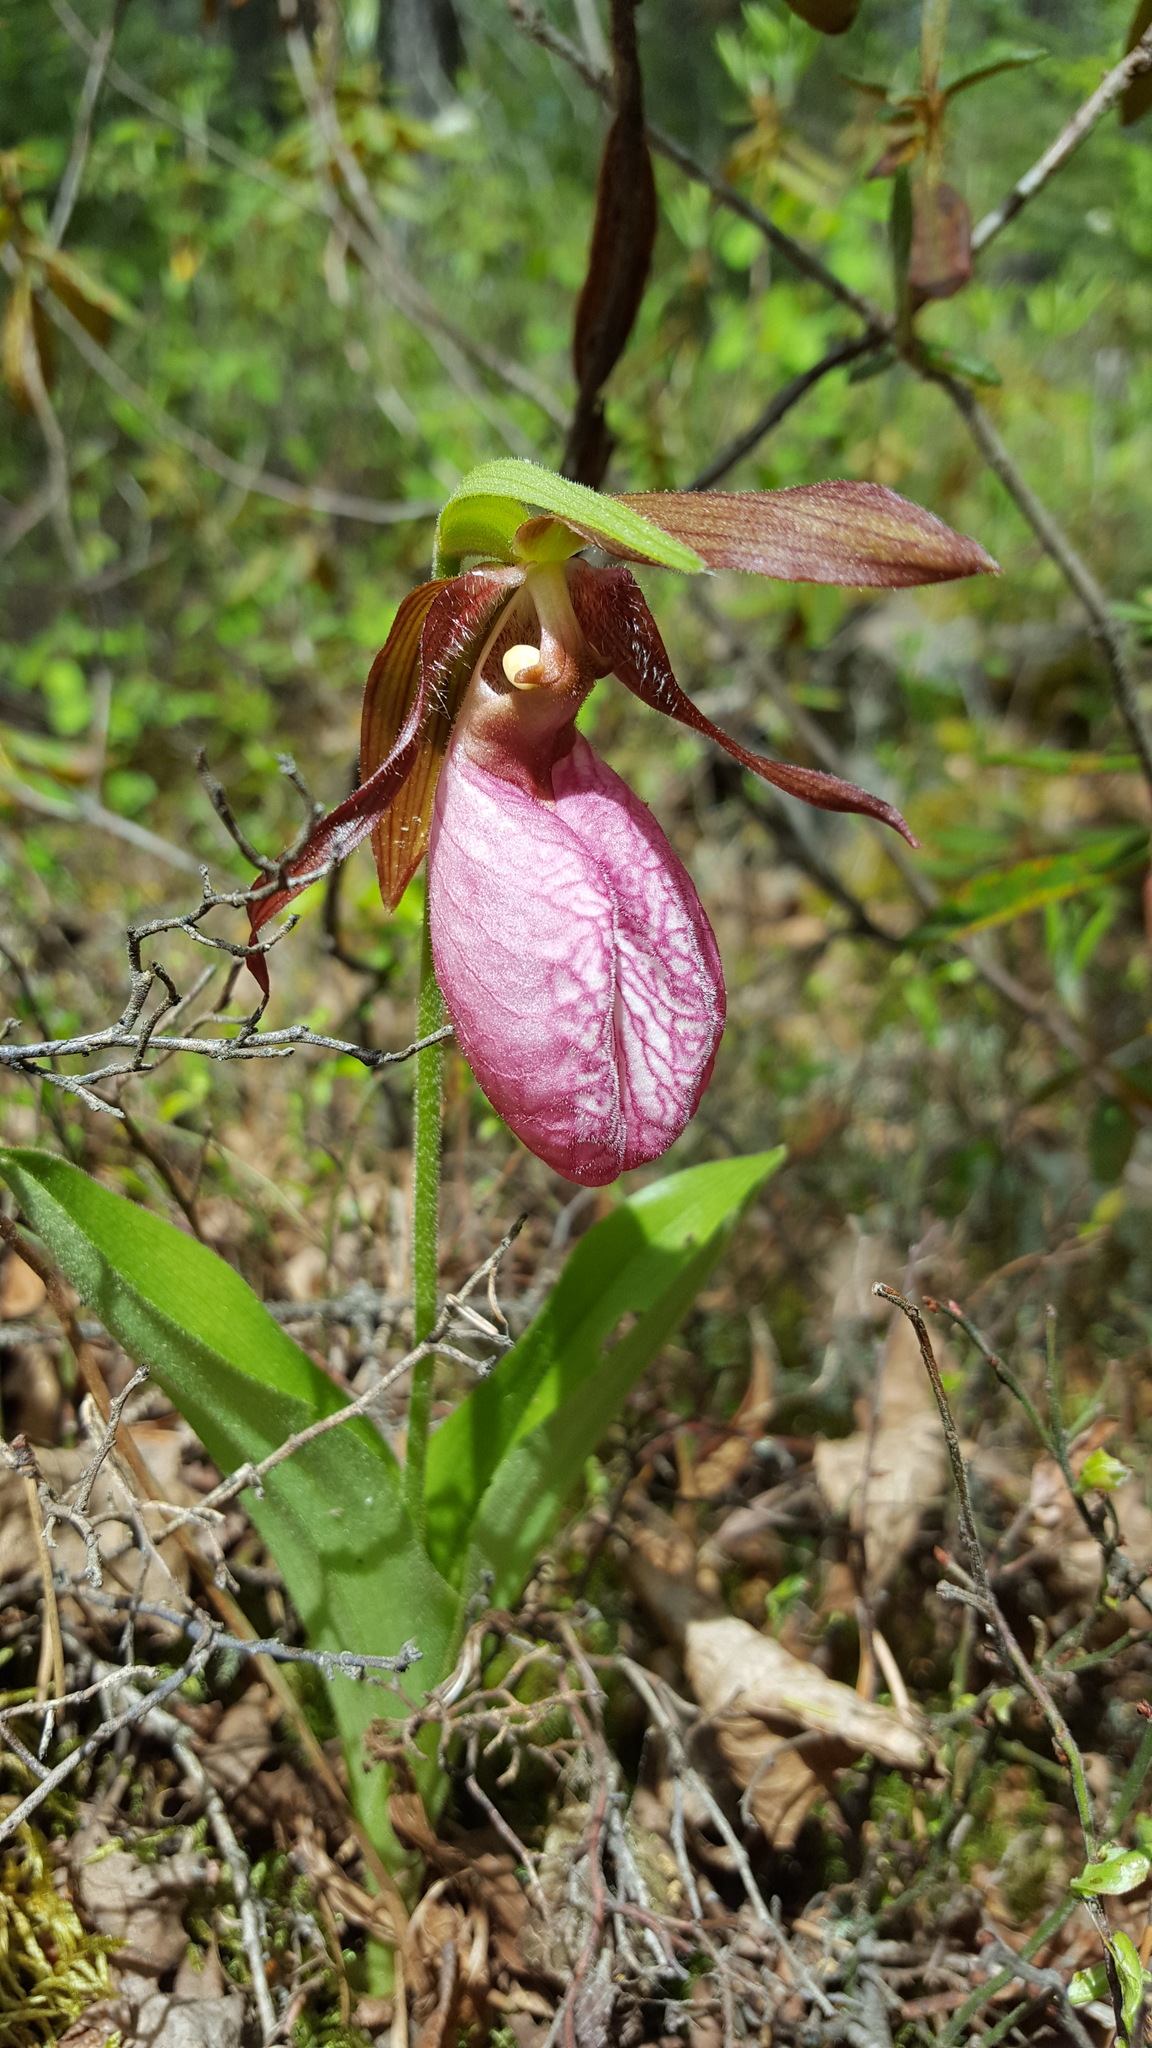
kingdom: Plantae
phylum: Tracheophyta
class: Liliopsida
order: Asparagales
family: Orchidaceae
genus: Cypripedium
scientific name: Cypripedium acaule
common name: Pink lady's-slipper
